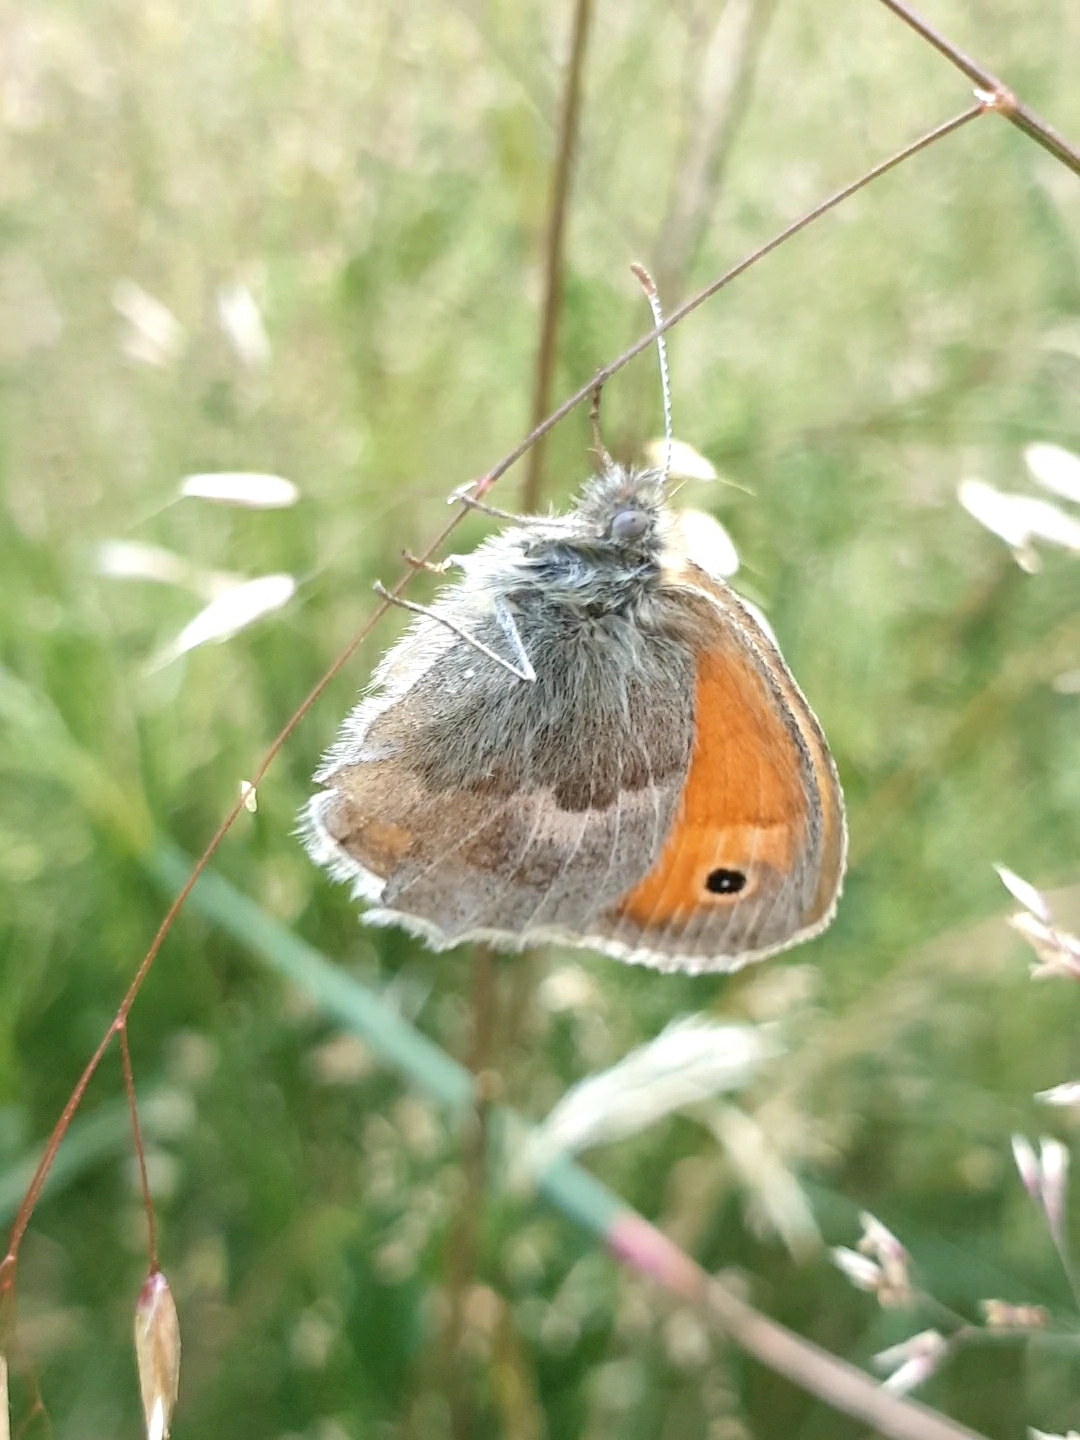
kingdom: Animalia
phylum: Arthropoda
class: Insecta
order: Lepidoptera
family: Nymphalidae
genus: Coenonympha
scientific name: Coenonympha pamphilus
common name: Small heath
